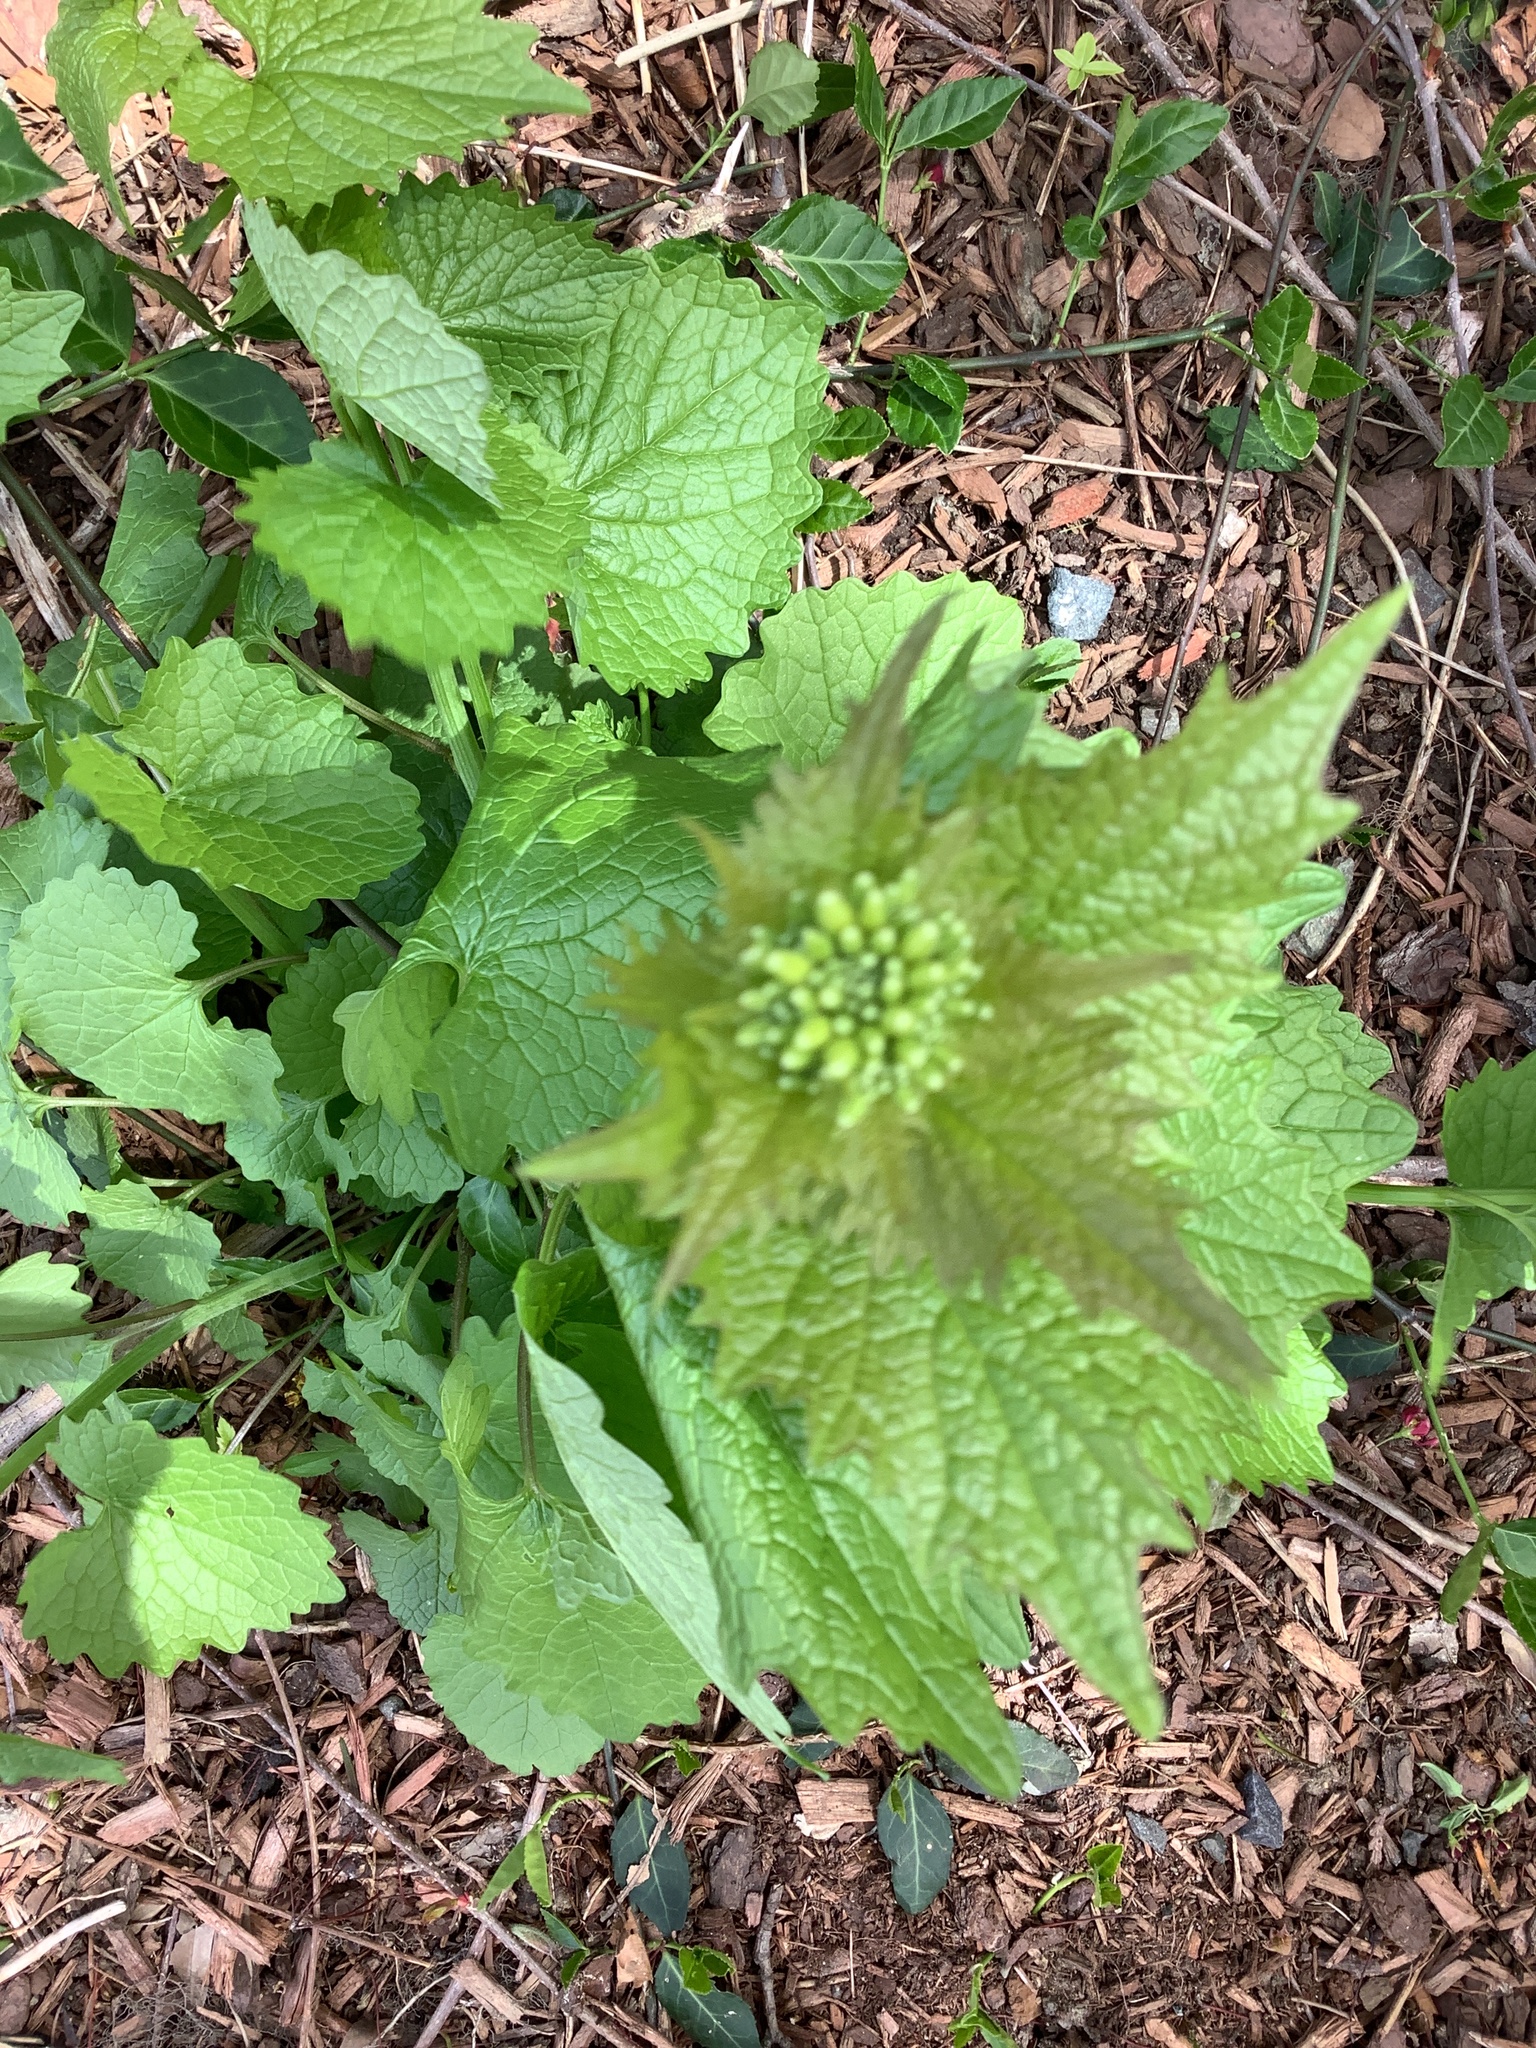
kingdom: Plantae
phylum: Tracheophyta
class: Magnoliopsida
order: Brassicales
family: Brassicaceae
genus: Alliaria
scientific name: Alliaria petiolata
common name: Garlic mustard
